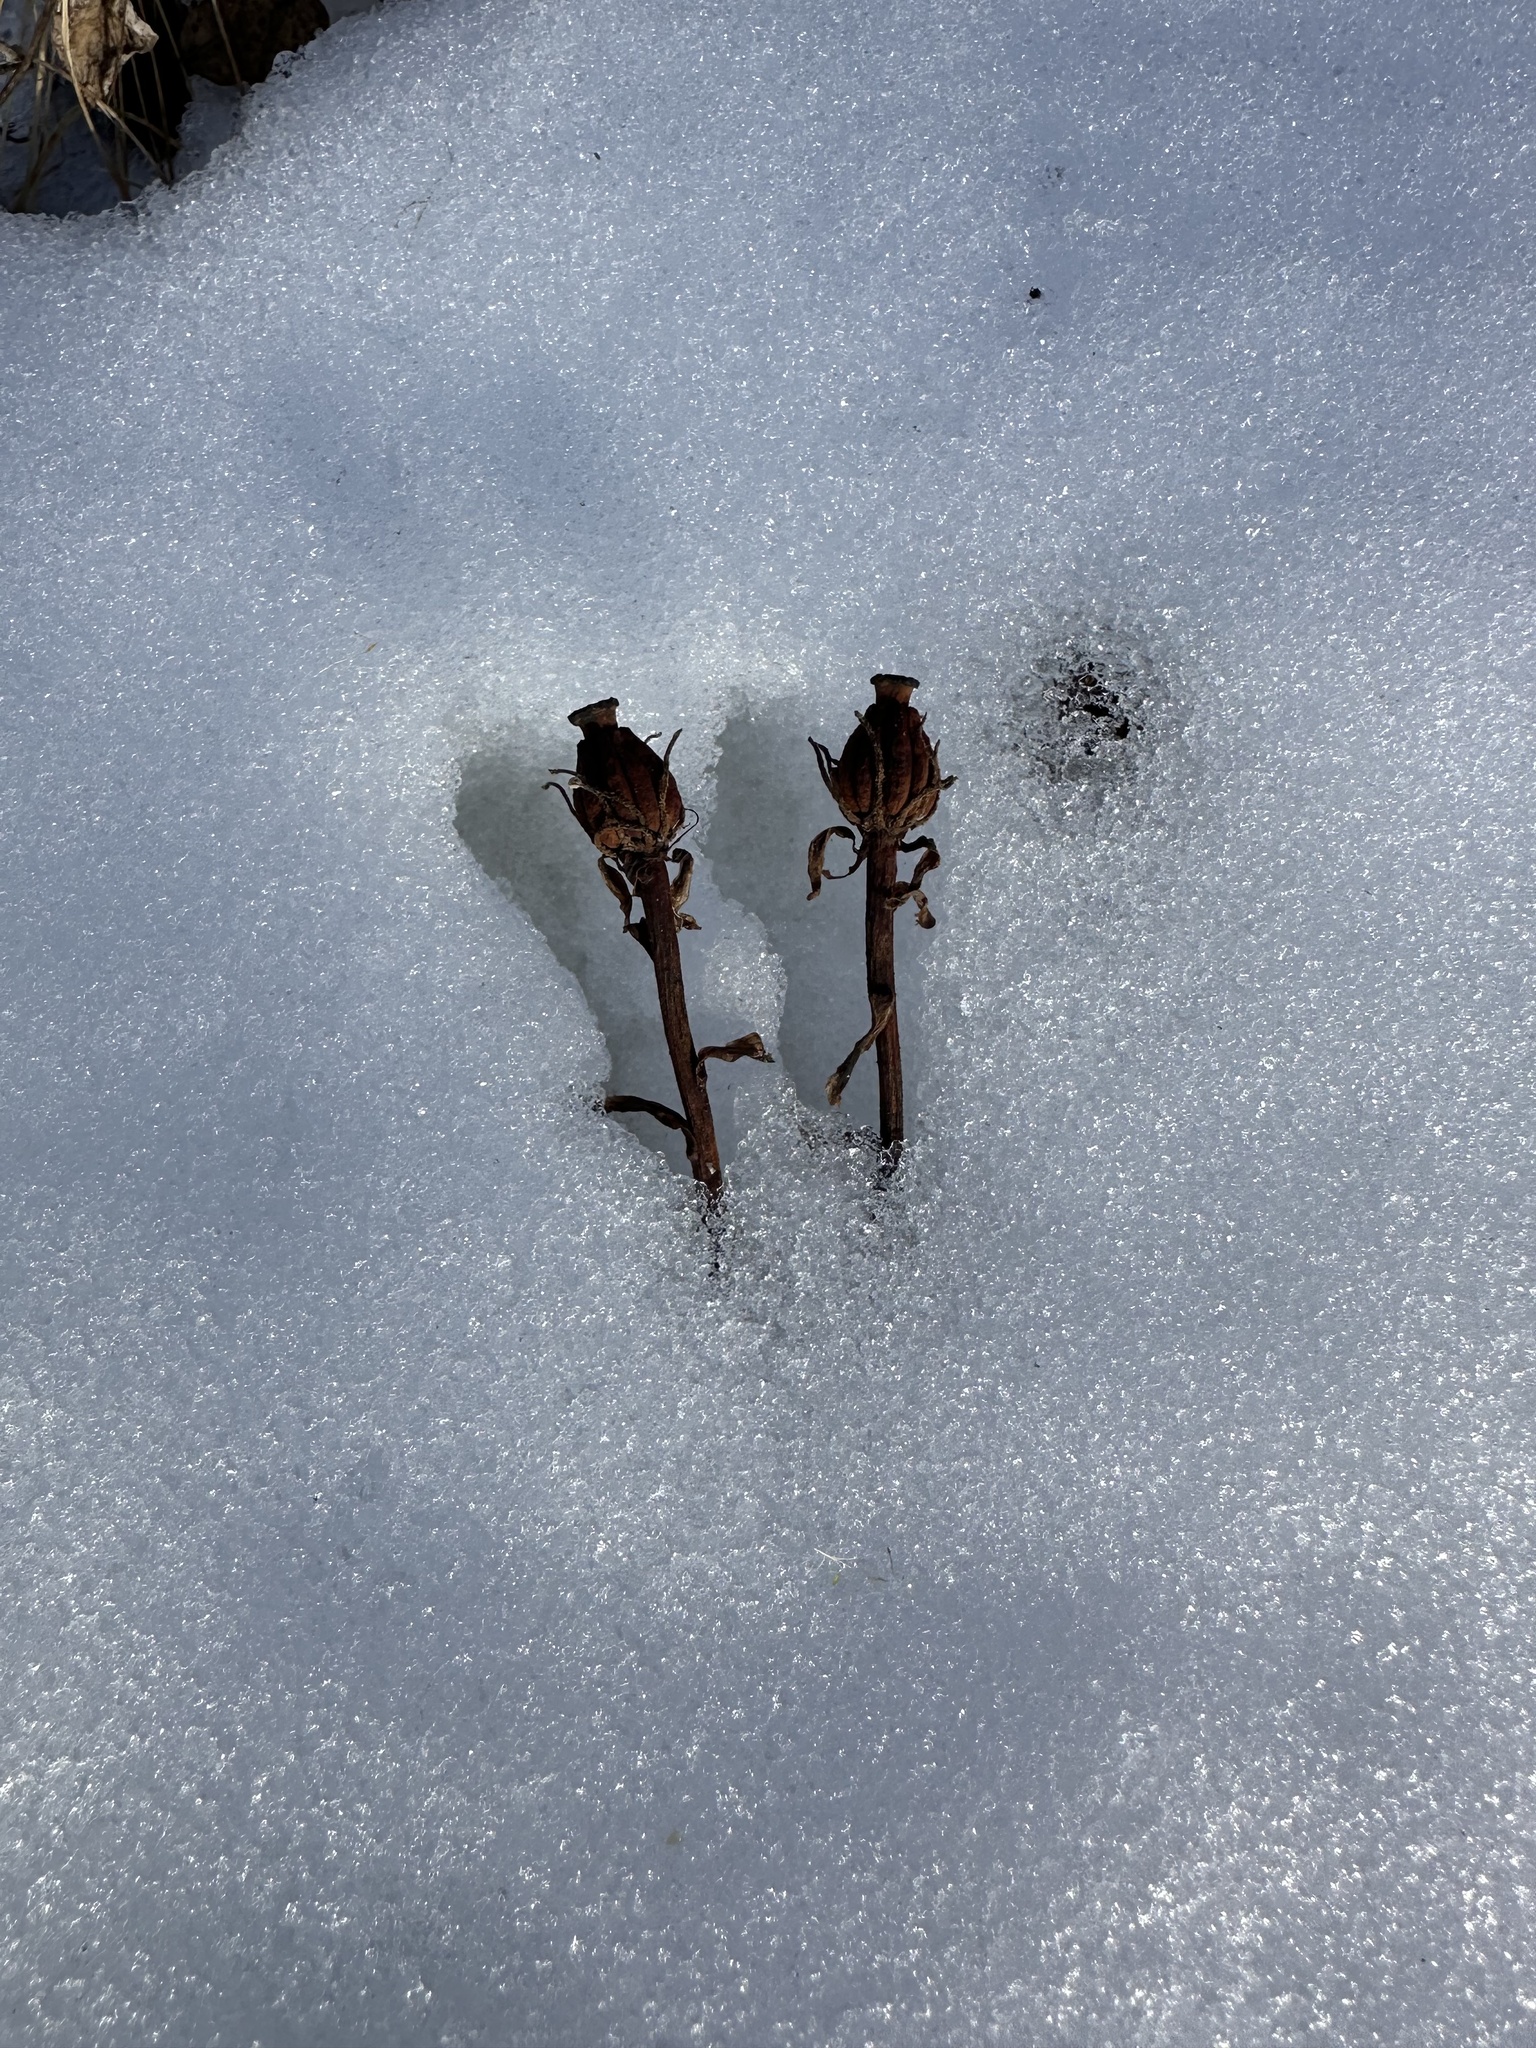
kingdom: Plantae
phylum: Tracheophyta
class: Magnoliopsida
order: Ericales
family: Ericaceae
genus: Monotropa
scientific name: Monotropa uniflora
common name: Convulsion root
